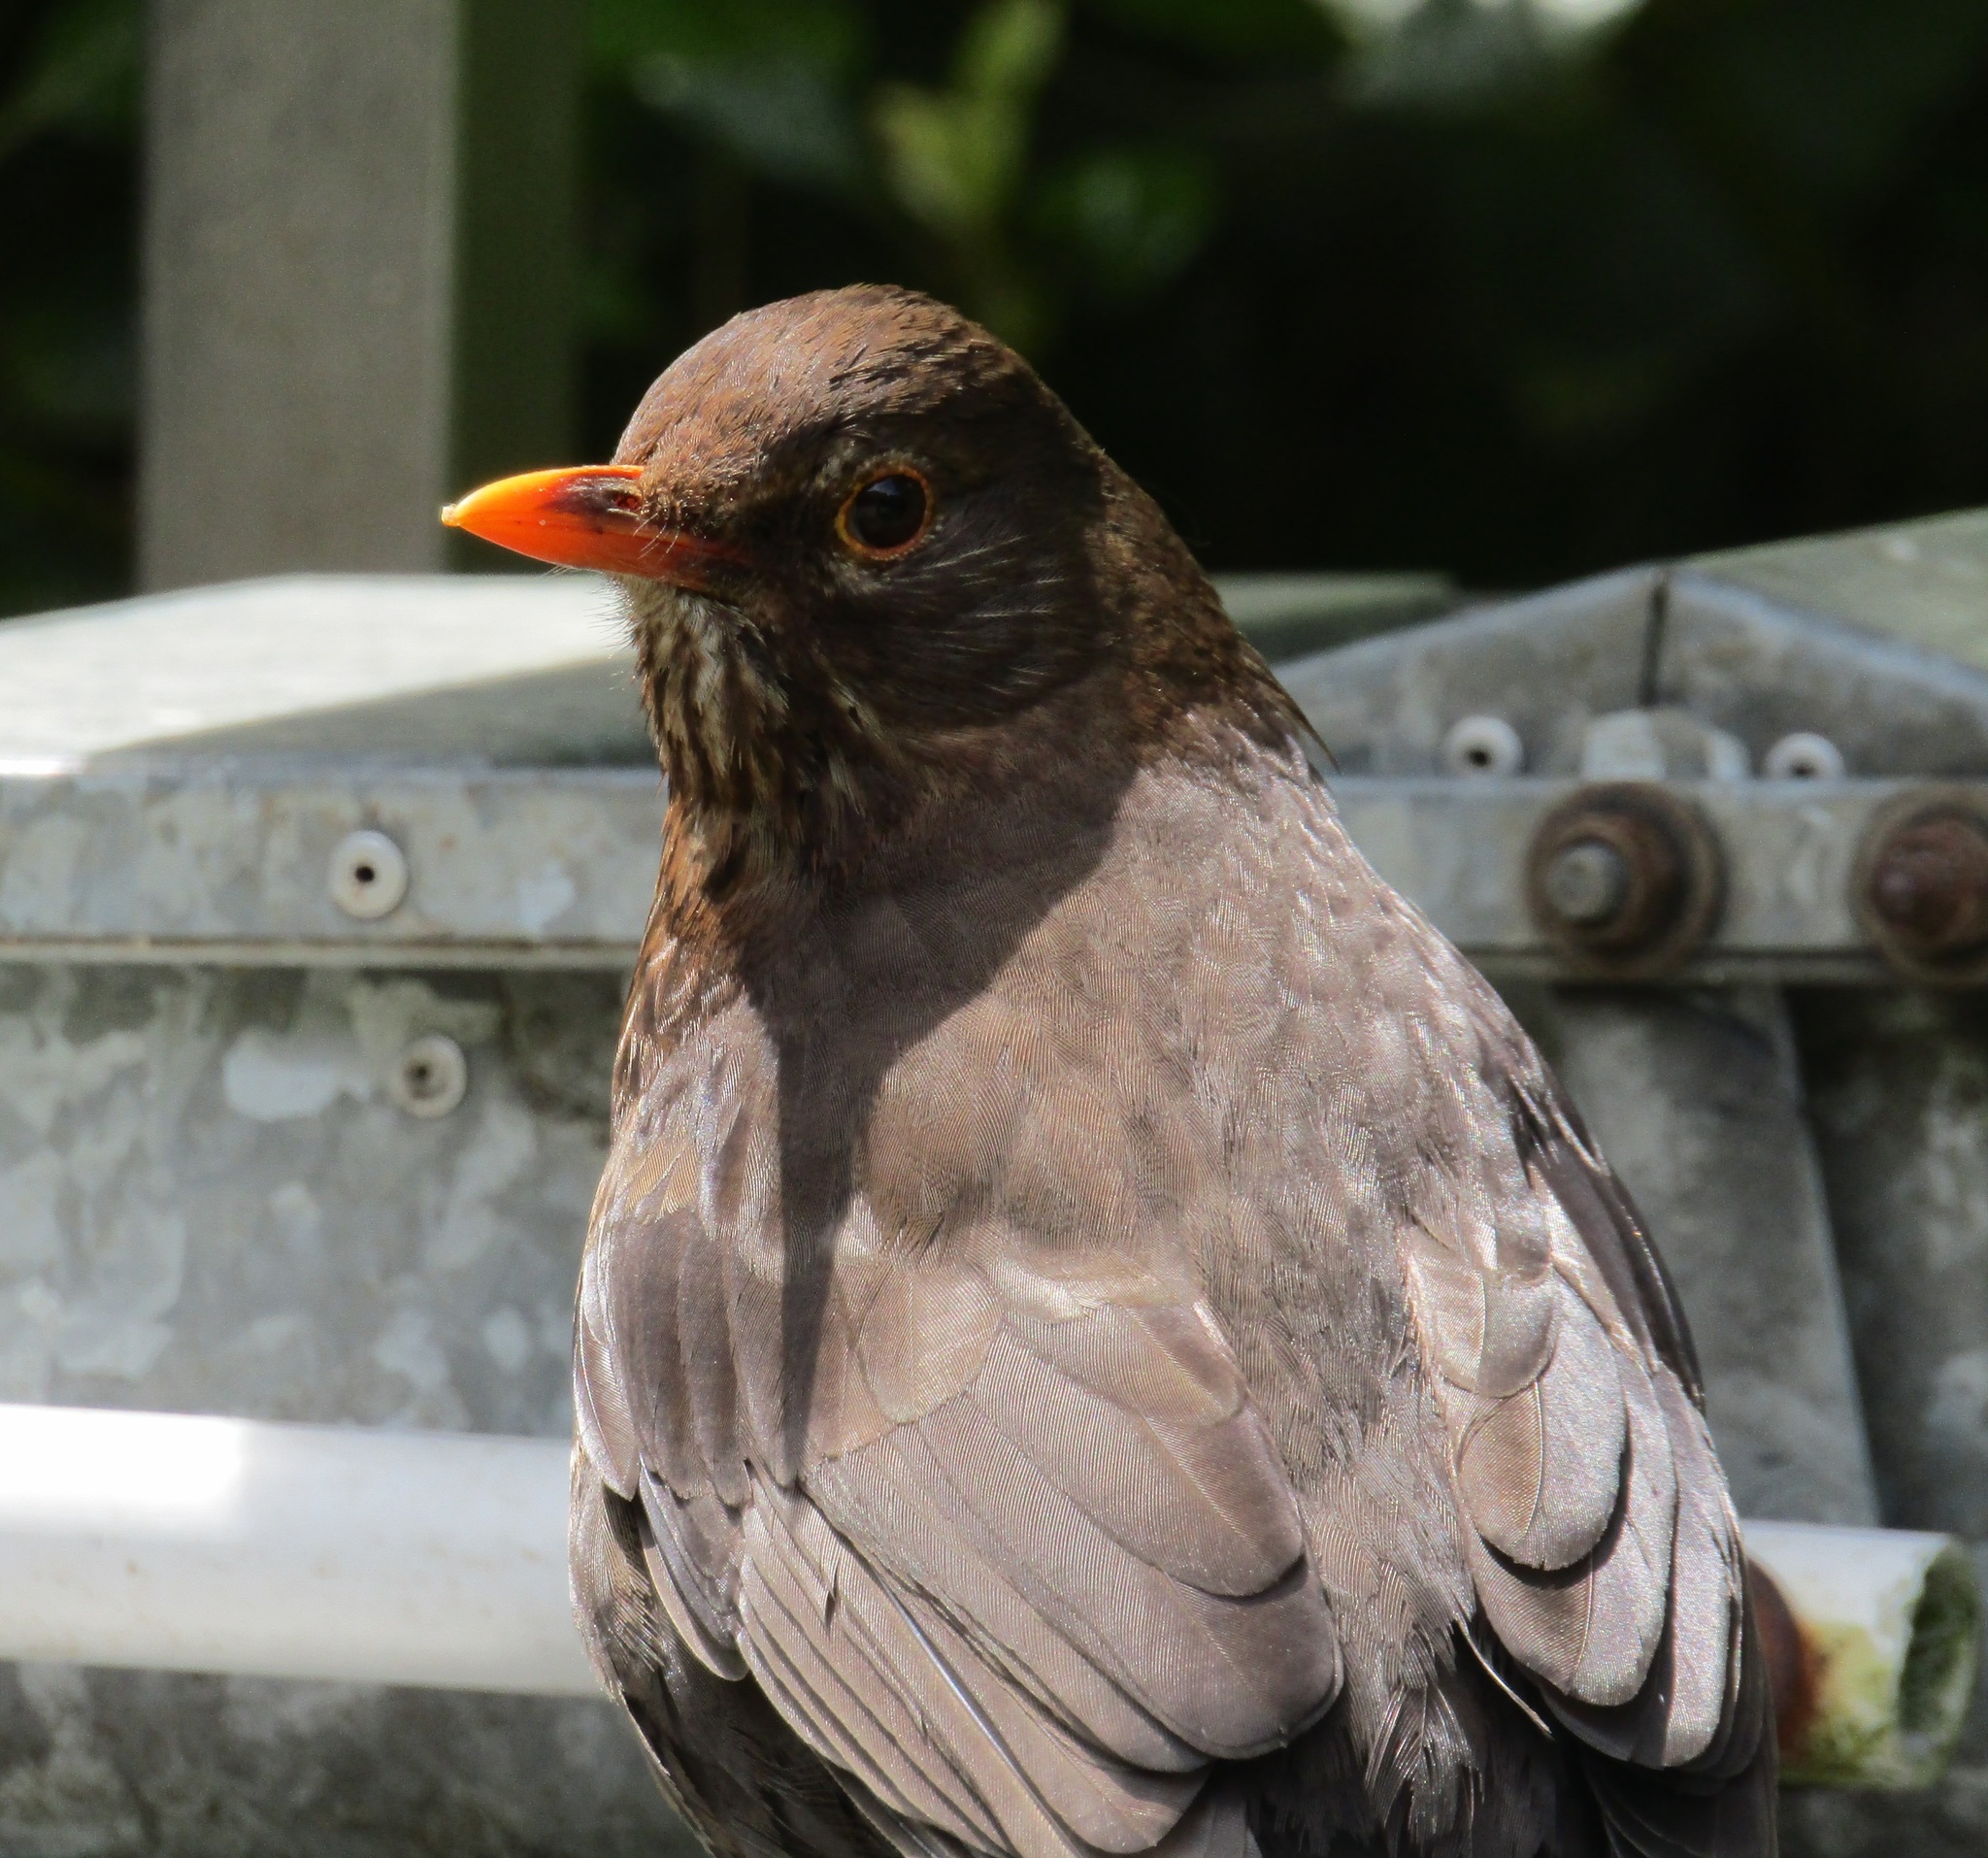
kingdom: Animalia
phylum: Chordata
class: Aves
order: Passeriformes
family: Turdidae
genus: Turdus
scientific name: Turdus merula
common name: Common blackbird
